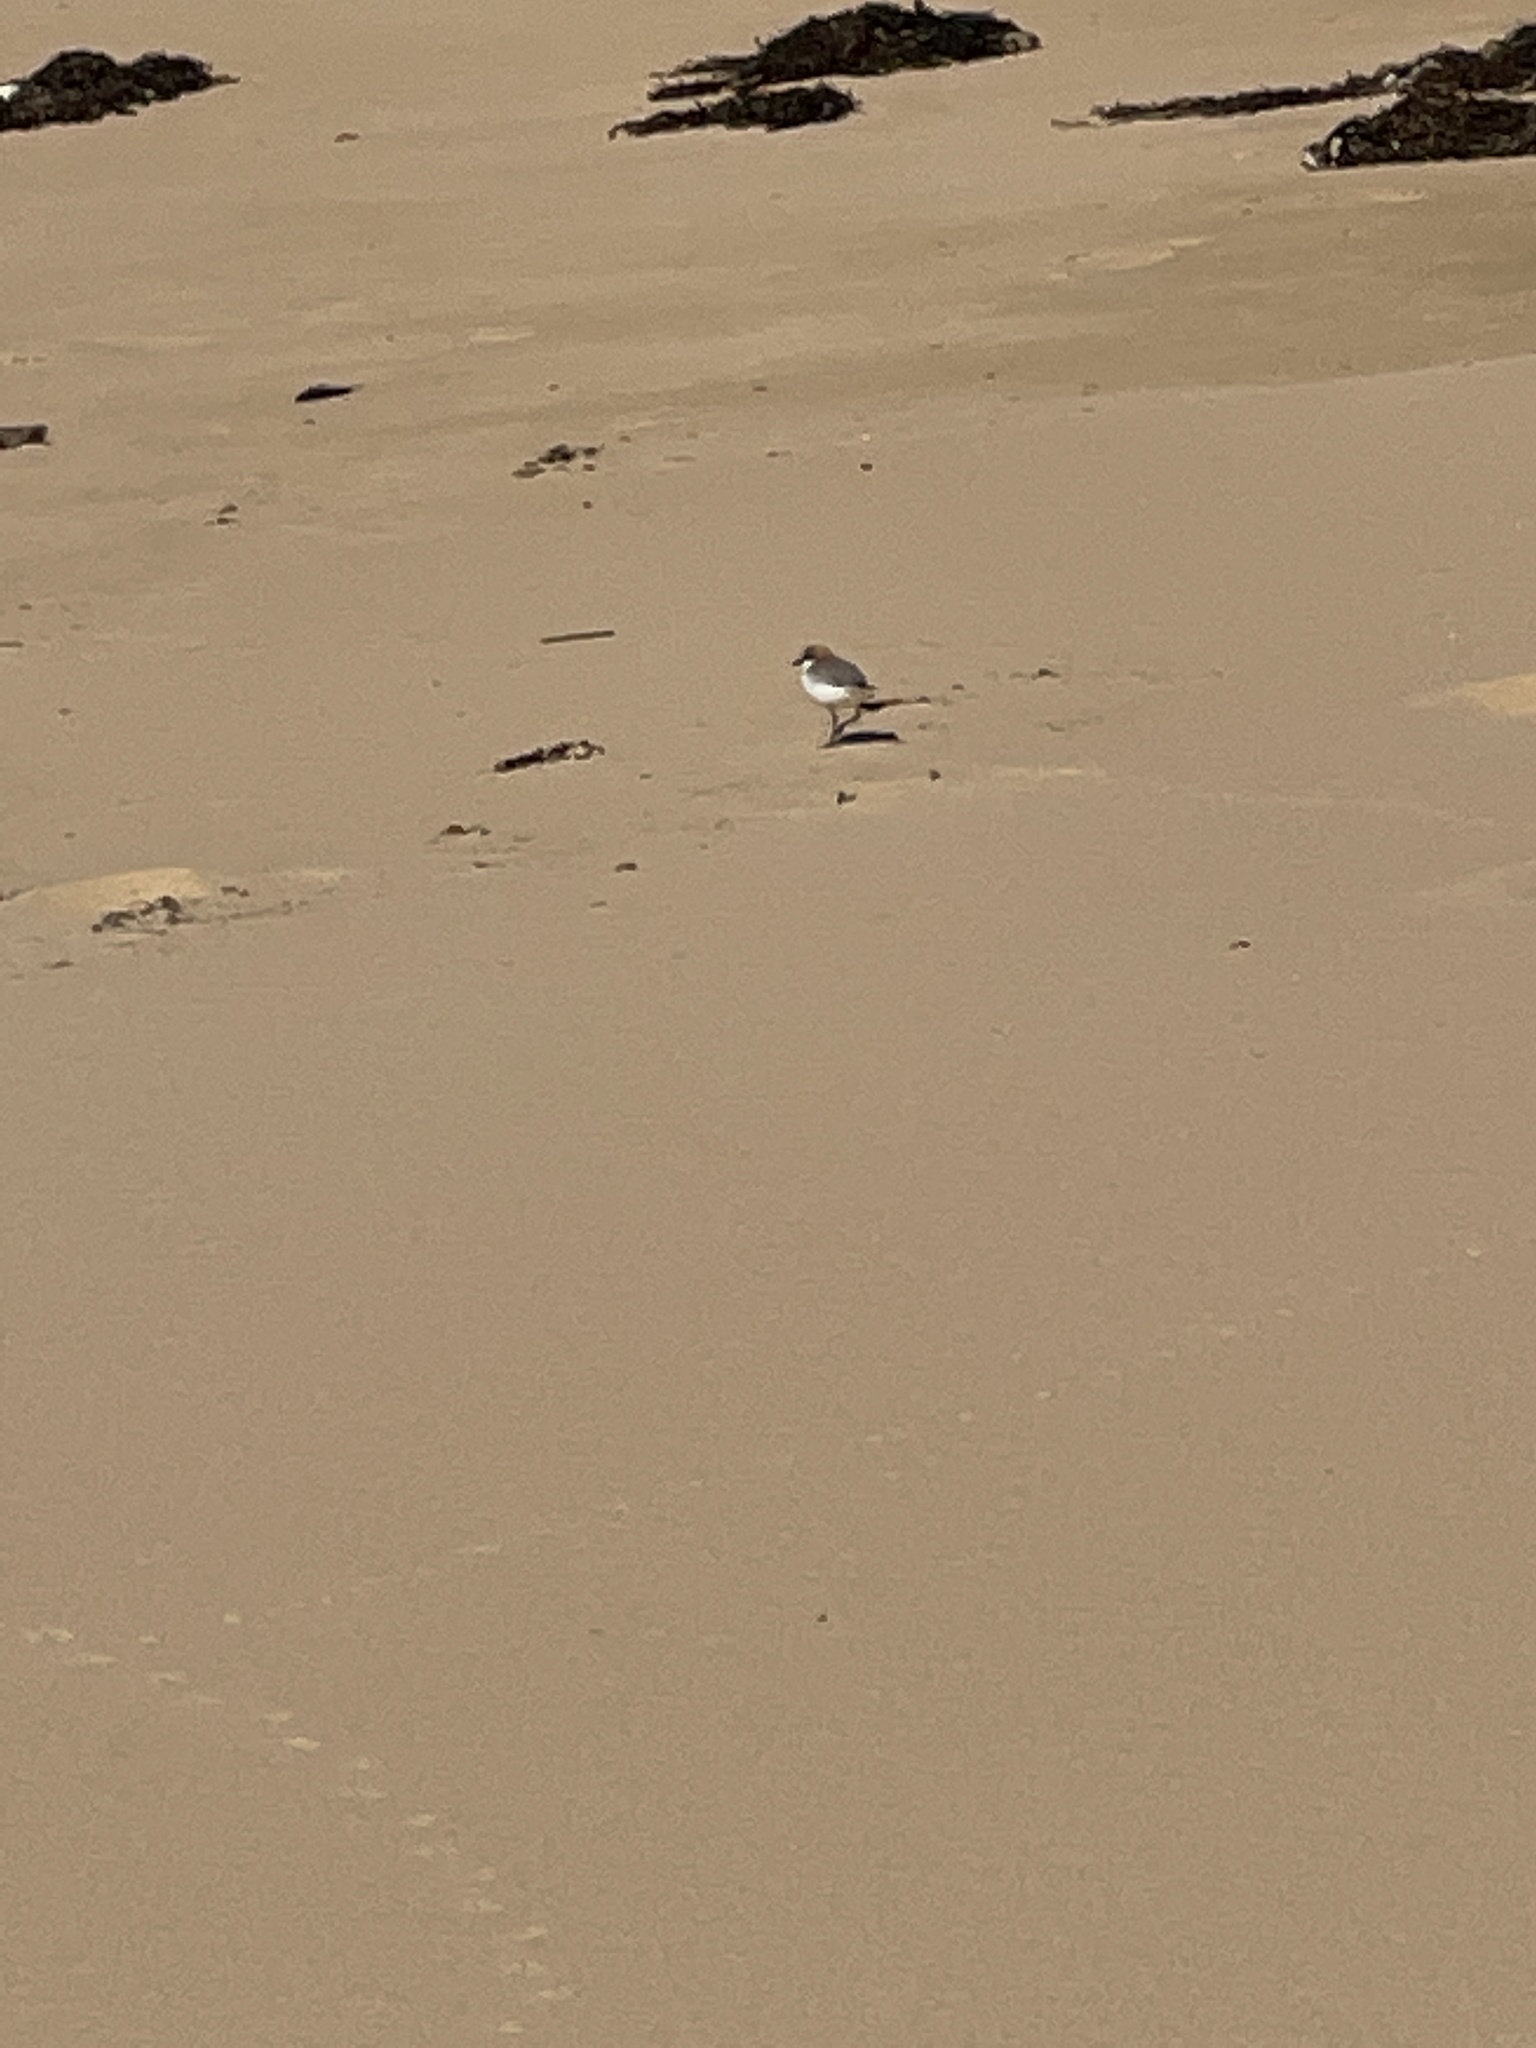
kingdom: Animalia
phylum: Chordata
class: Aves
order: Charadriiformes
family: Charadriidae
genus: Anarhynchus
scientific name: Anarhynchus
